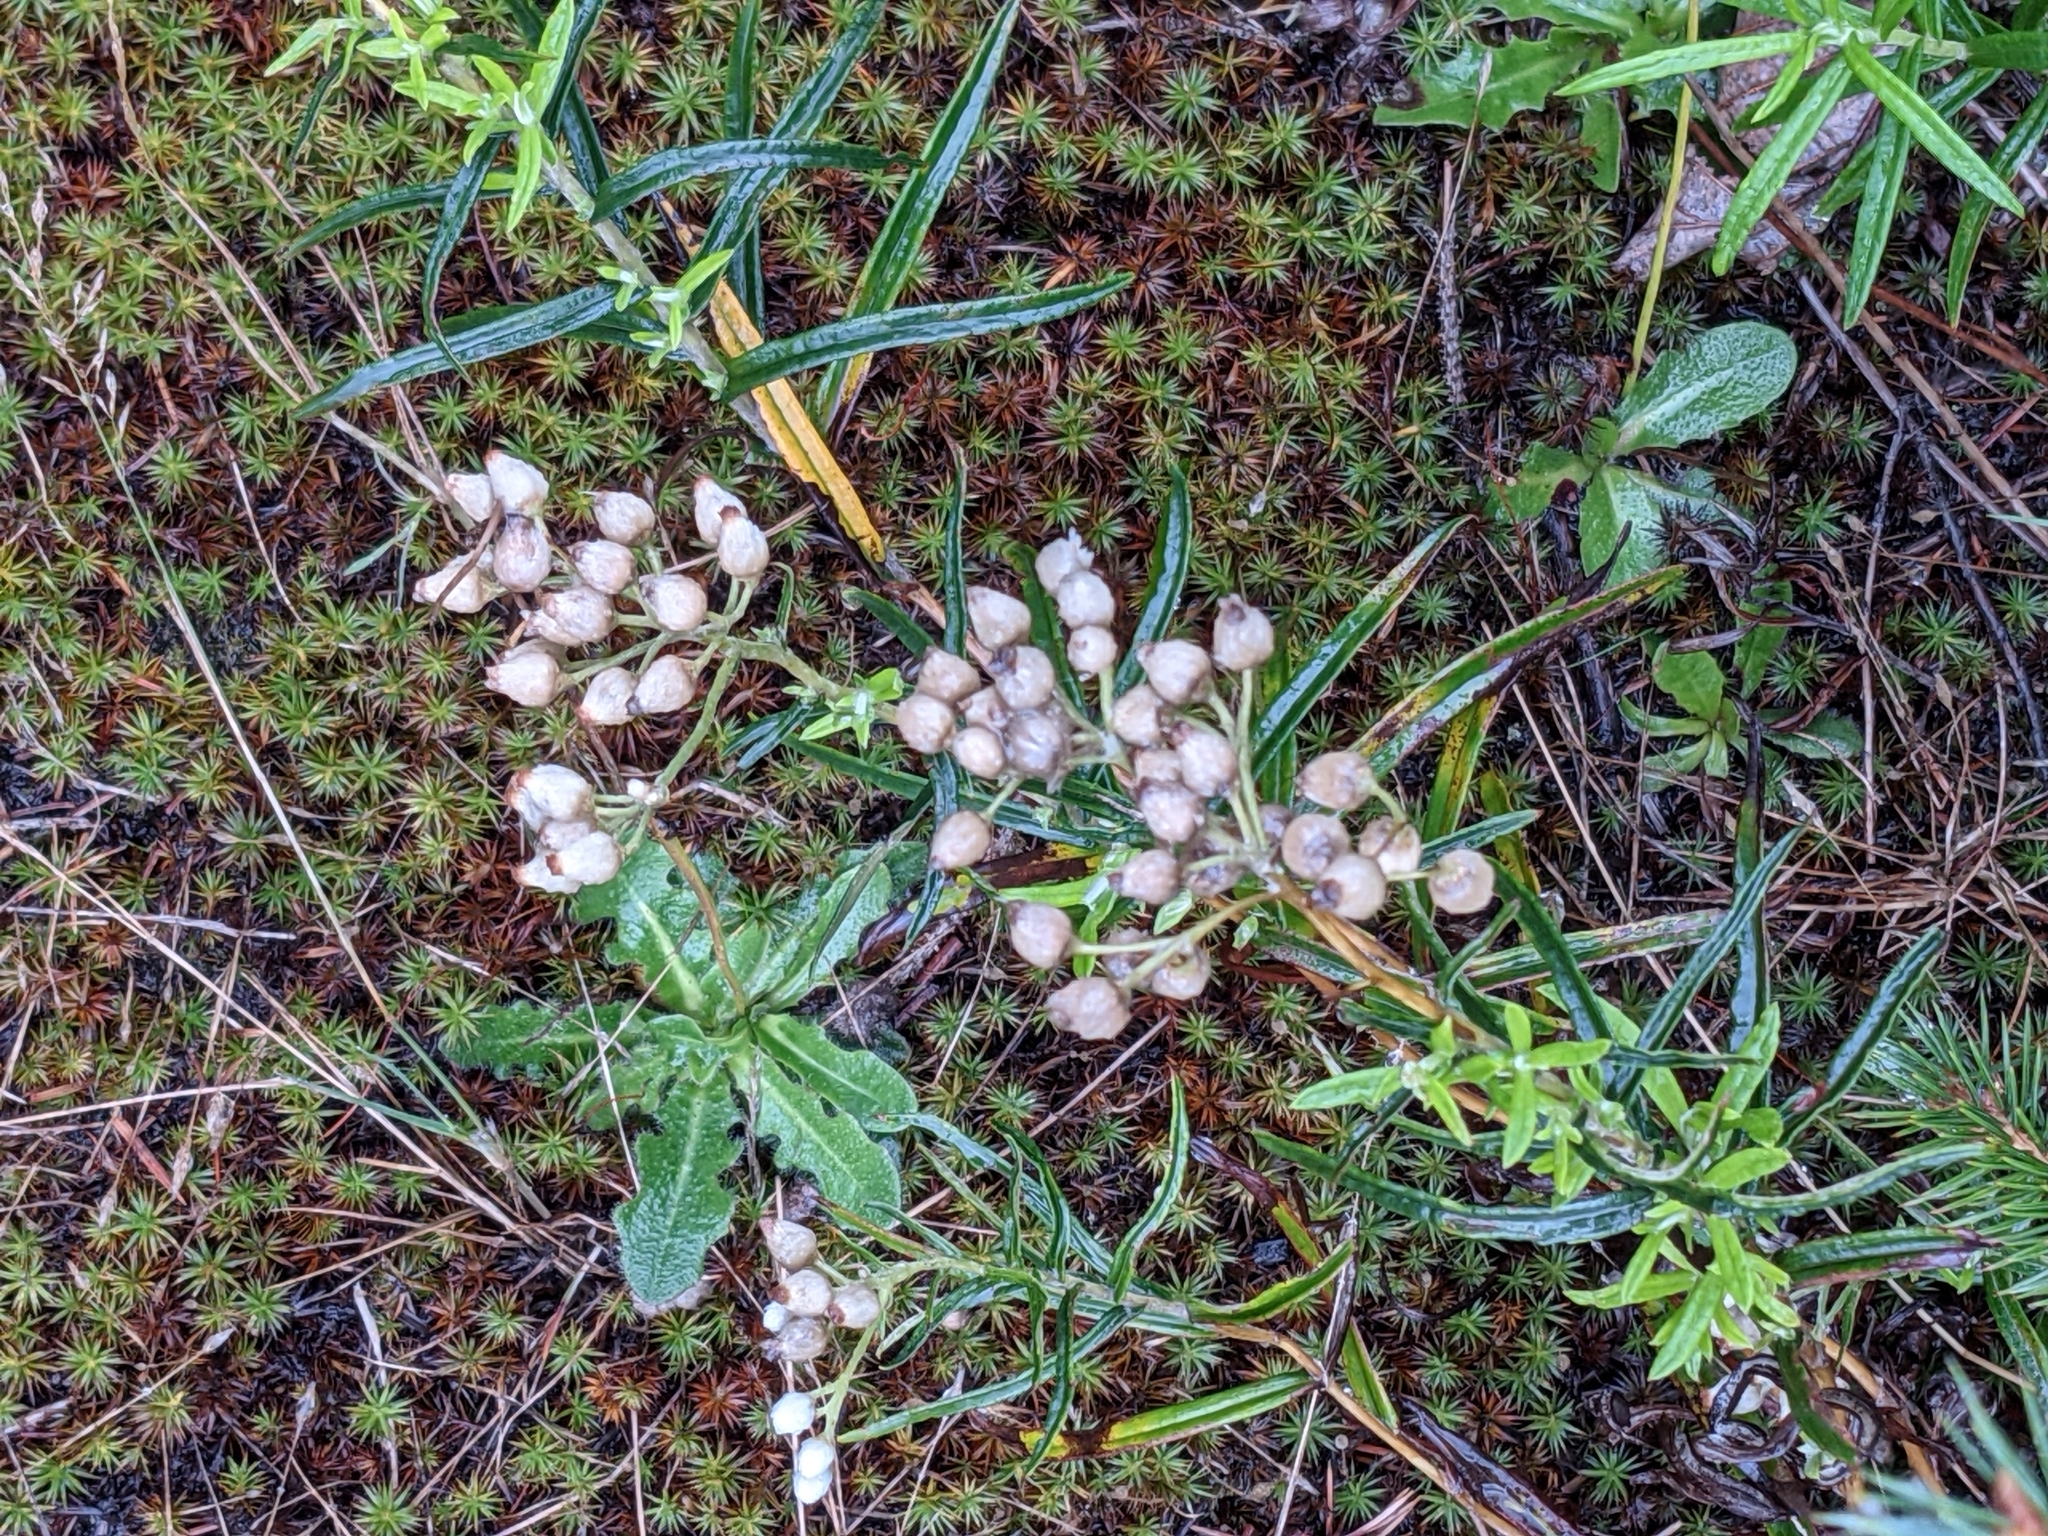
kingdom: Plantae
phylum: Tracheophyta
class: Magnoliopsida
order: Asterales
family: Asteraceae
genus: Anaphalis
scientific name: Anaphalis margaritacea
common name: Pearly everlasting
